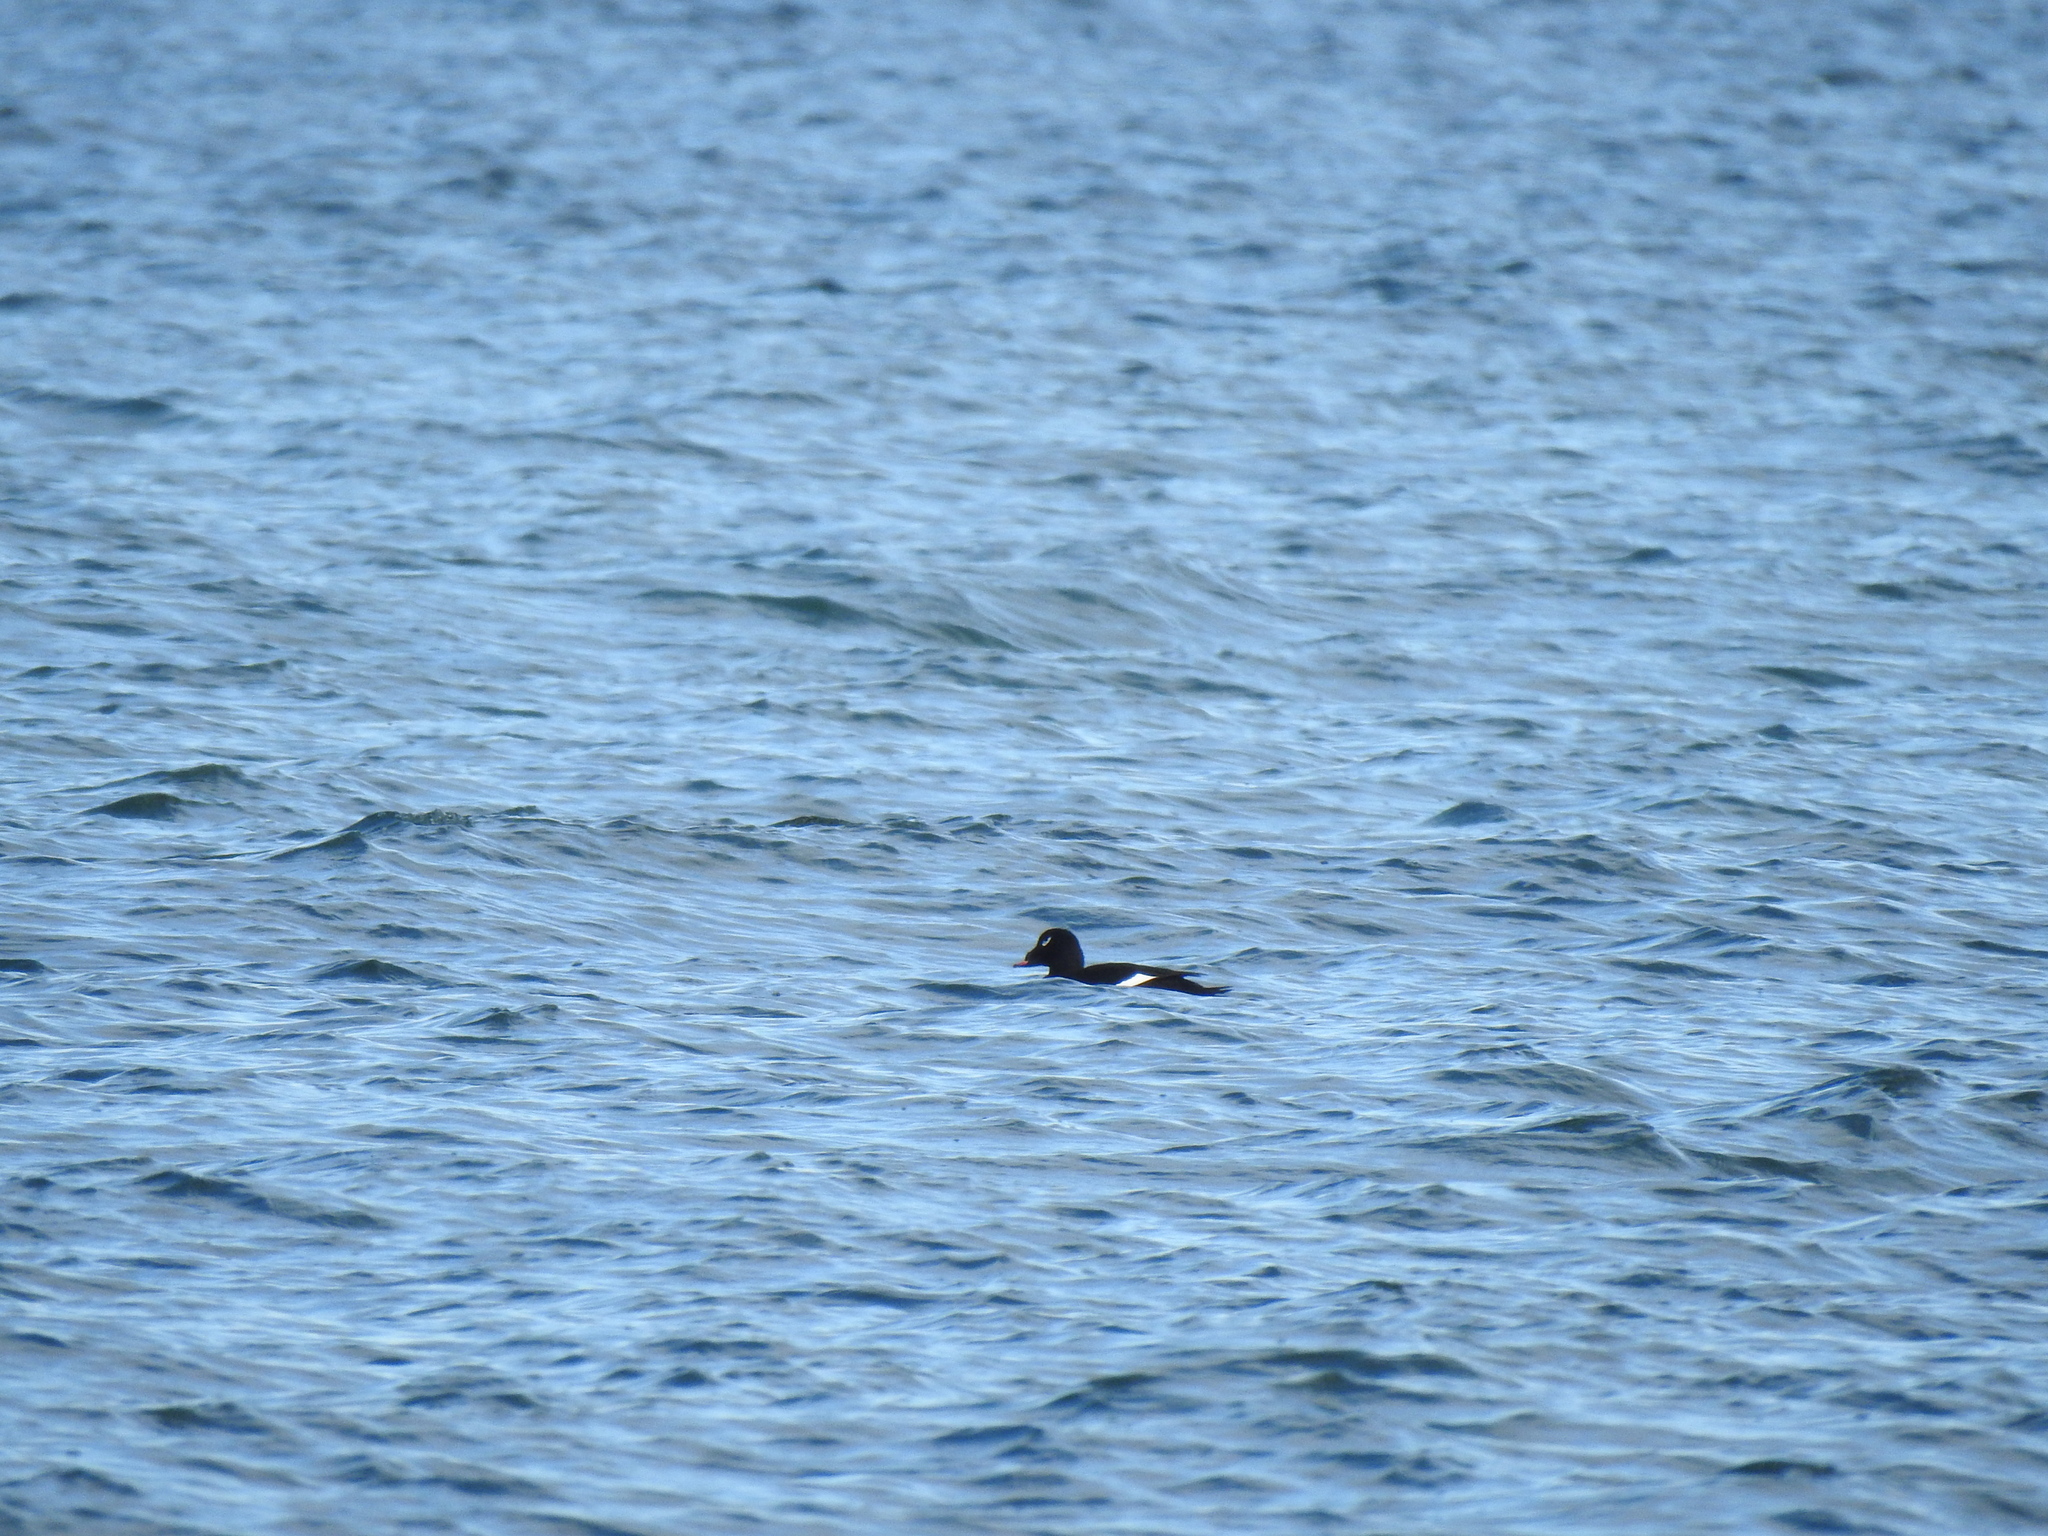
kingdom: Animalia
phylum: Chordata
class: Aves
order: Anseriformes
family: Anatidae
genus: Melanitta
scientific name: Melanitta deglandi
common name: White-winged scoter
